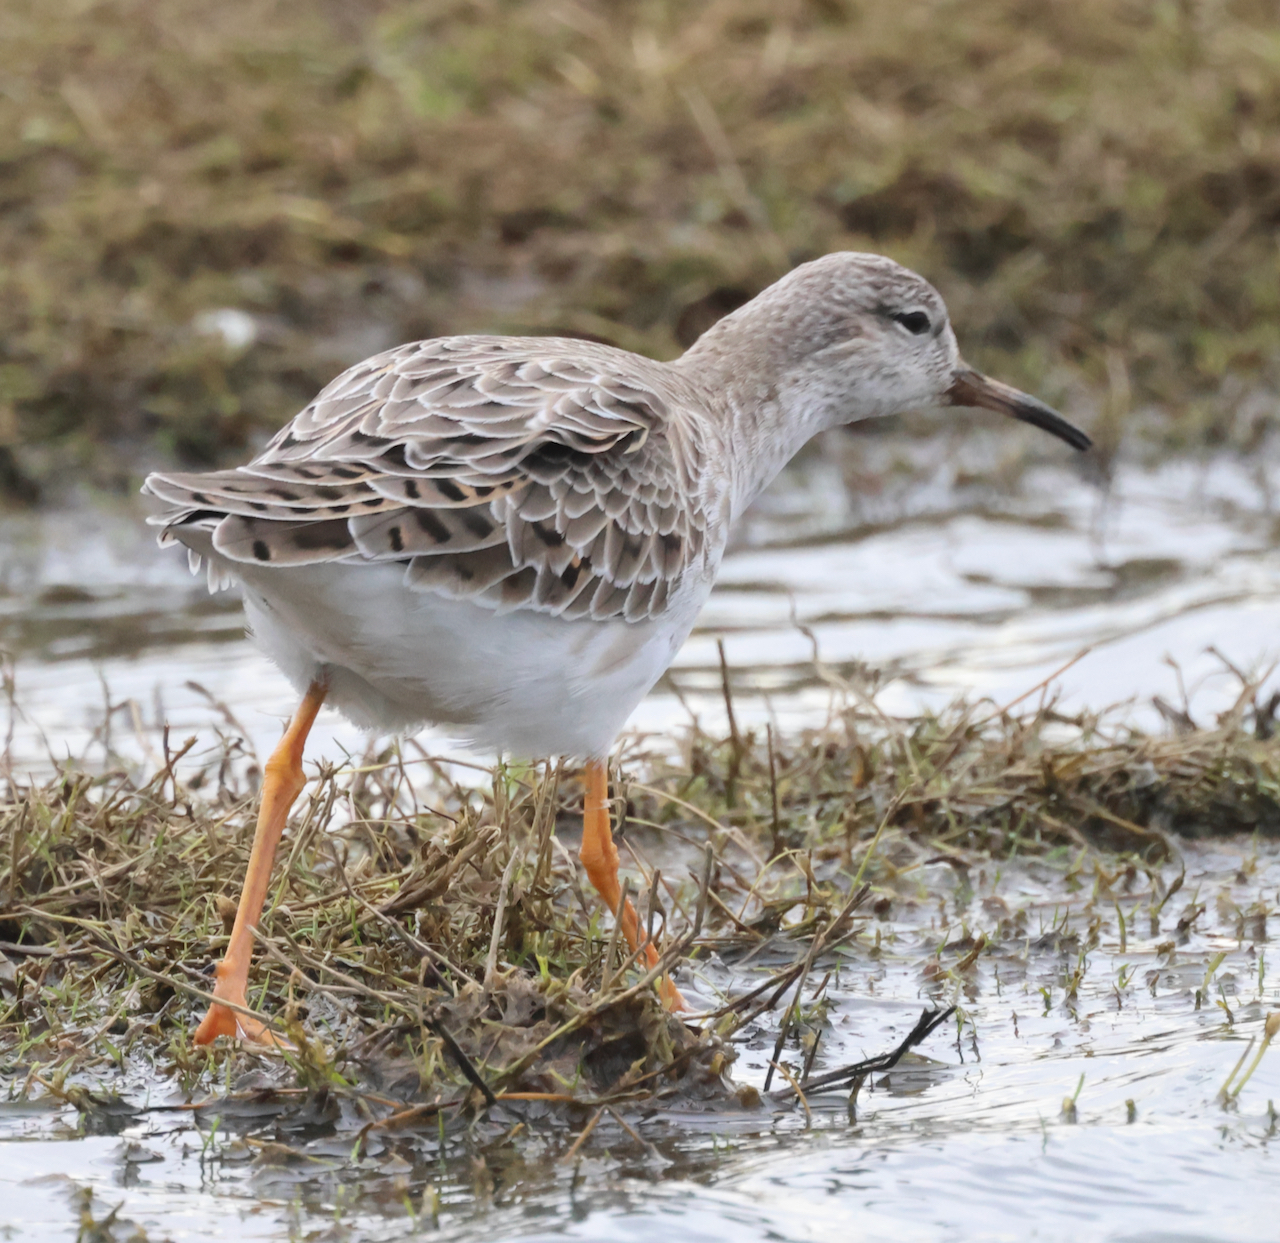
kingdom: Animalia
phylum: Chordata
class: Aves
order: Charadriiformes
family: Scolopacidae
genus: Calidris
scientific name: Calidris pugnax
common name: Ruff
